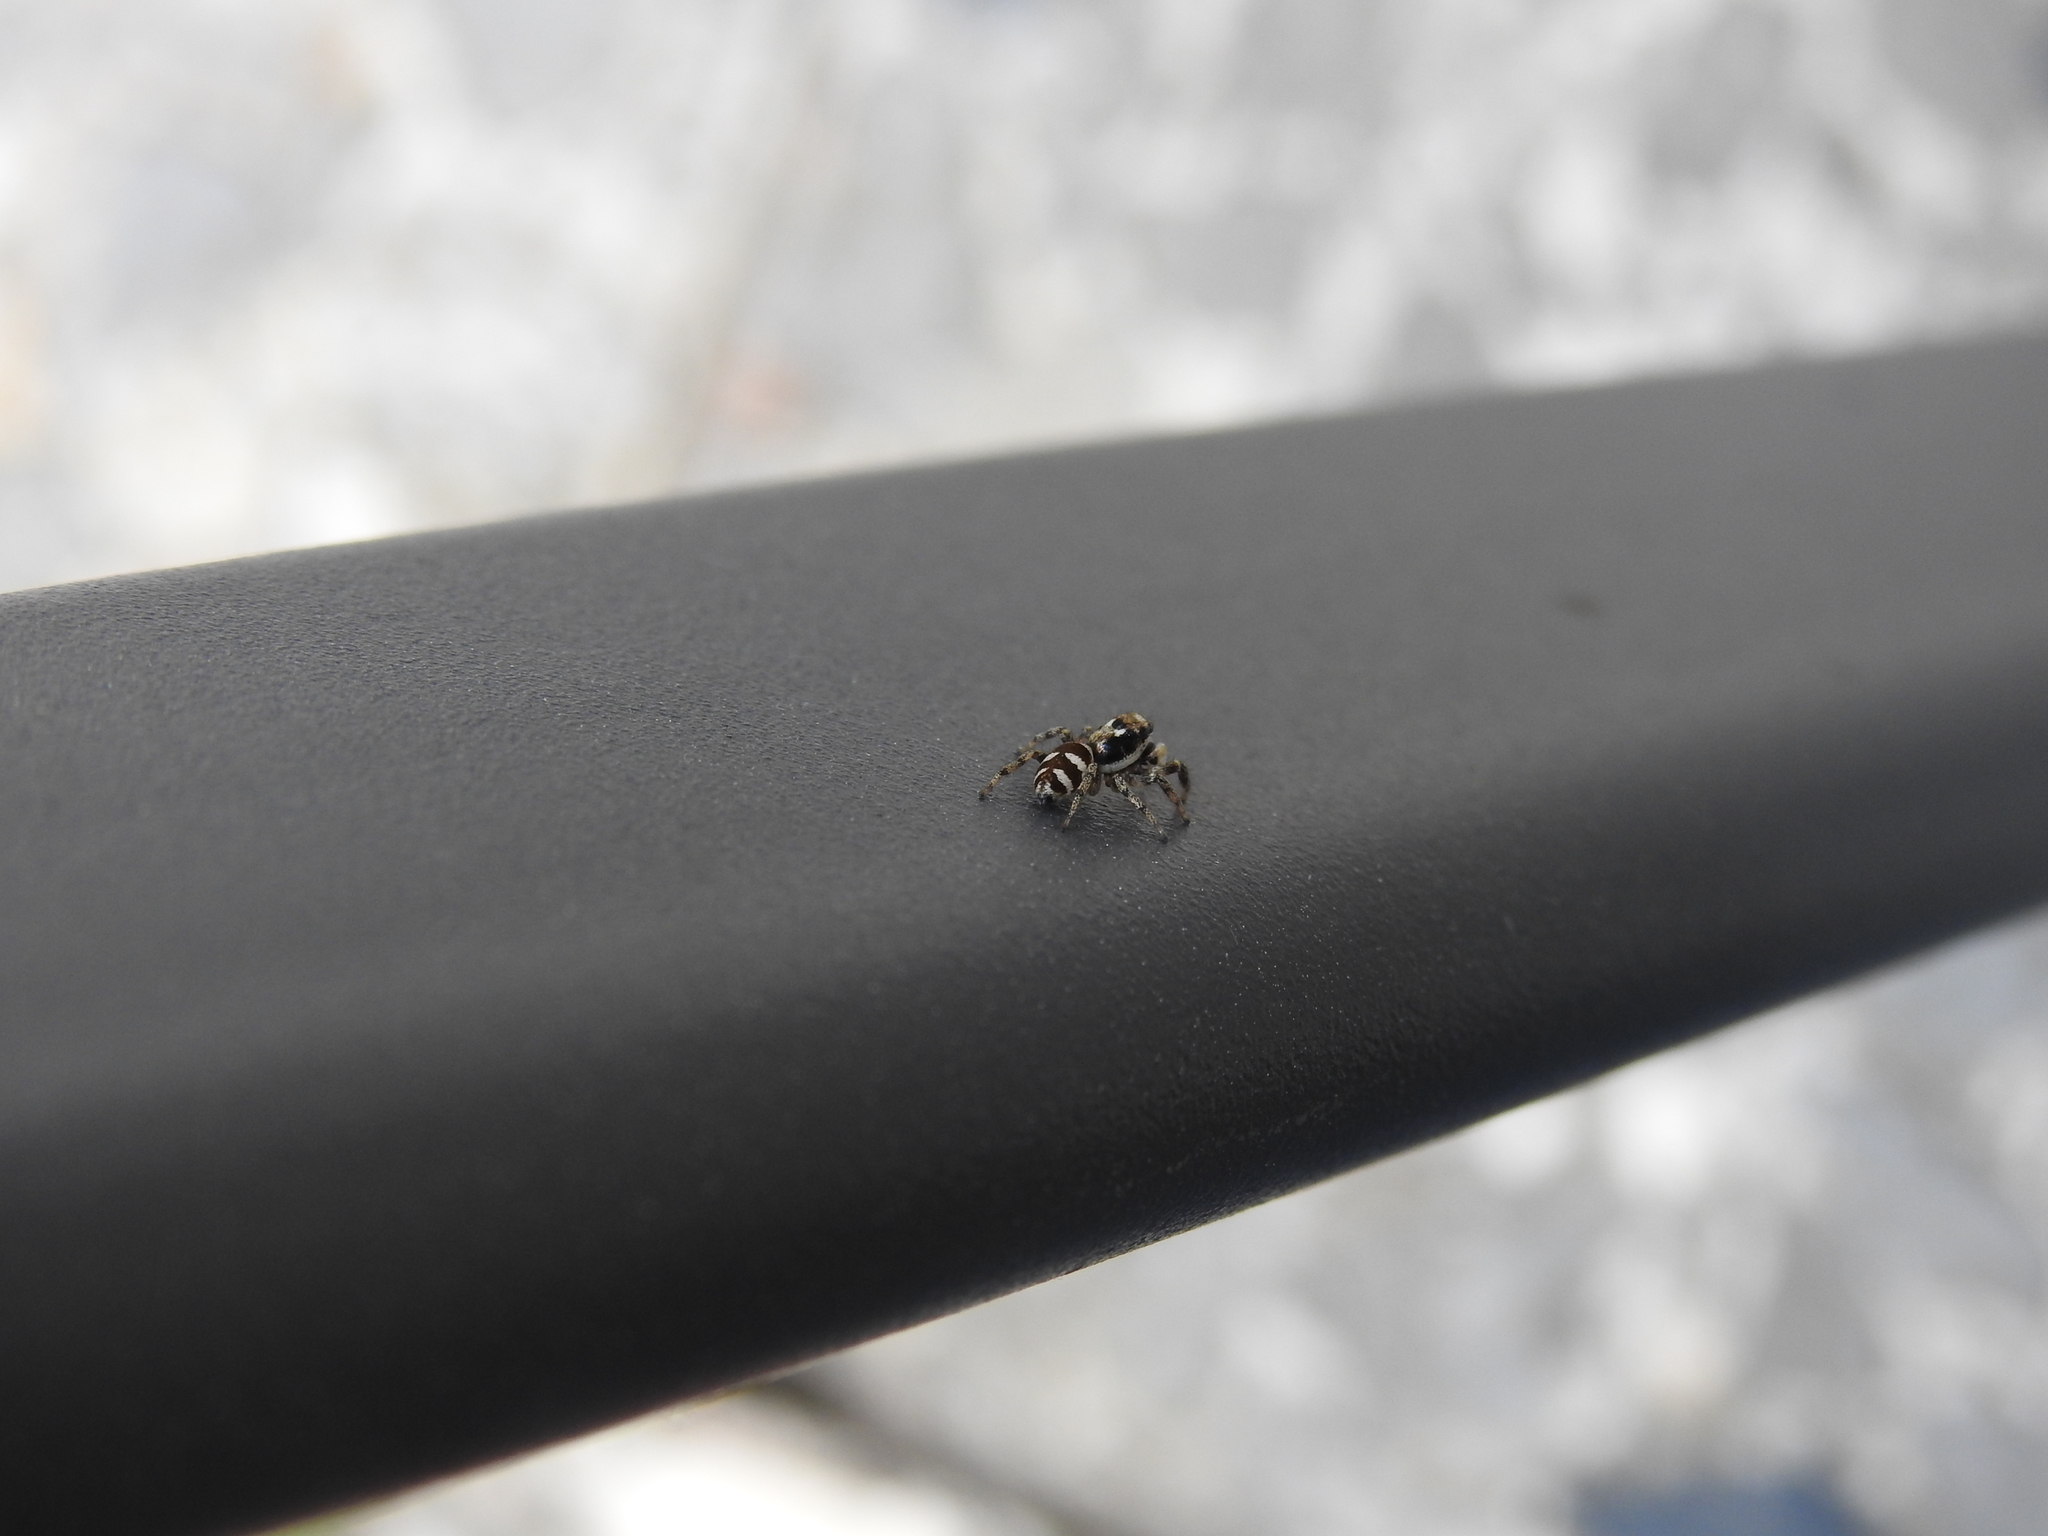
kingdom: Animalia
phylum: Arthropoda
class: Arachnida
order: Araneae
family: Salticidae
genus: Salticus
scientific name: Salticus scenicus
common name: Zebra jumper
